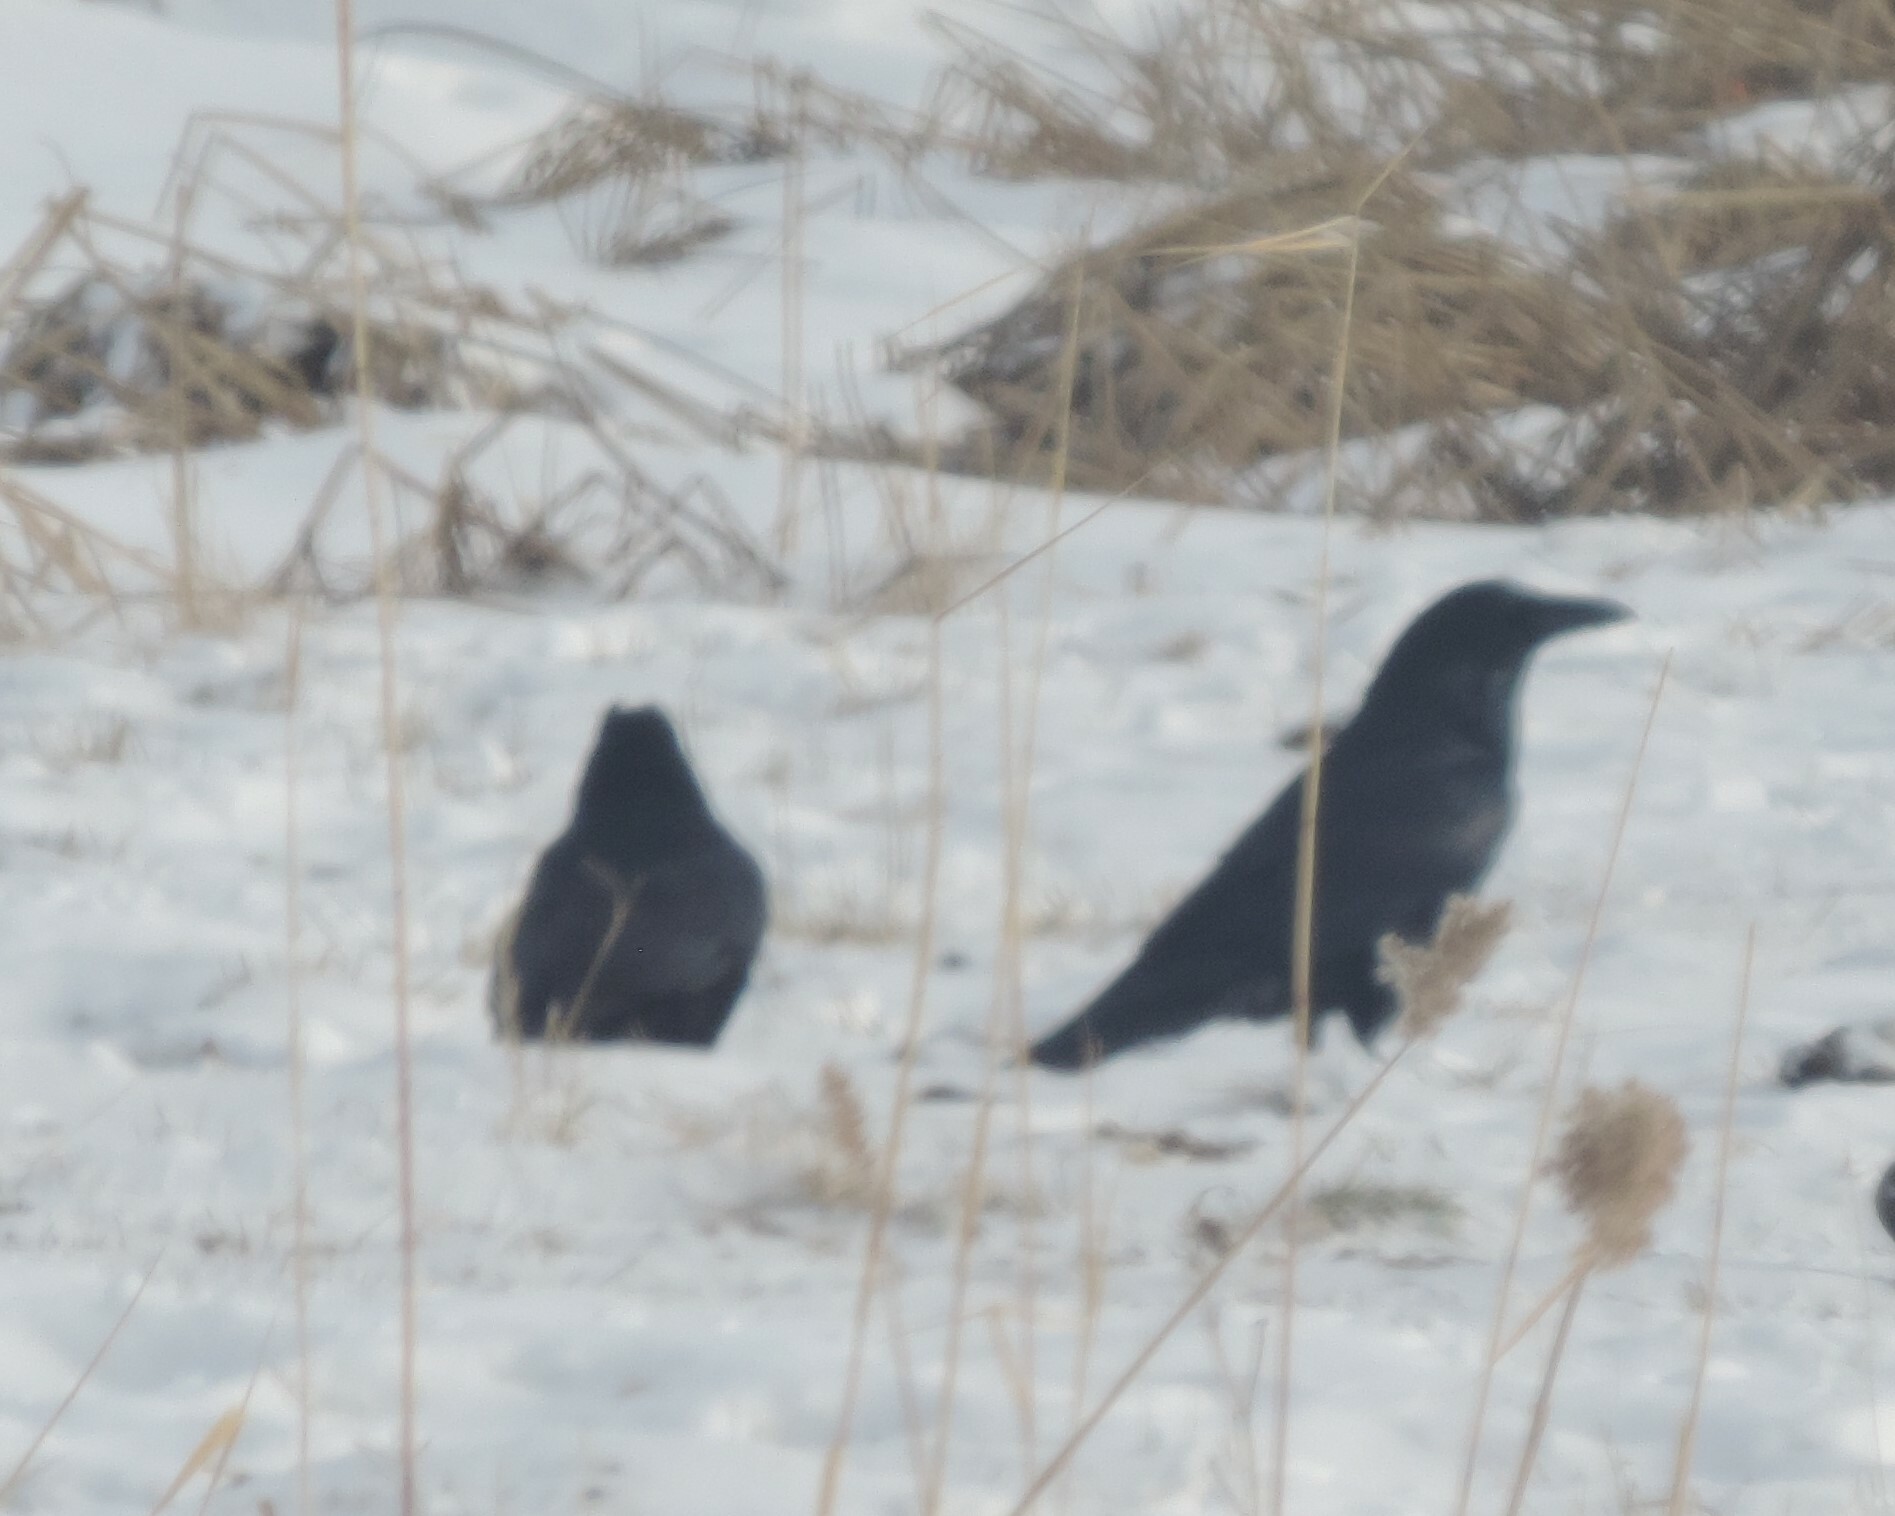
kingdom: Animalia
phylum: Chordata
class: Aves
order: Passeriformes
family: Corvidae
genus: Corvus
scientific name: Corvus corax
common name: Common raven
